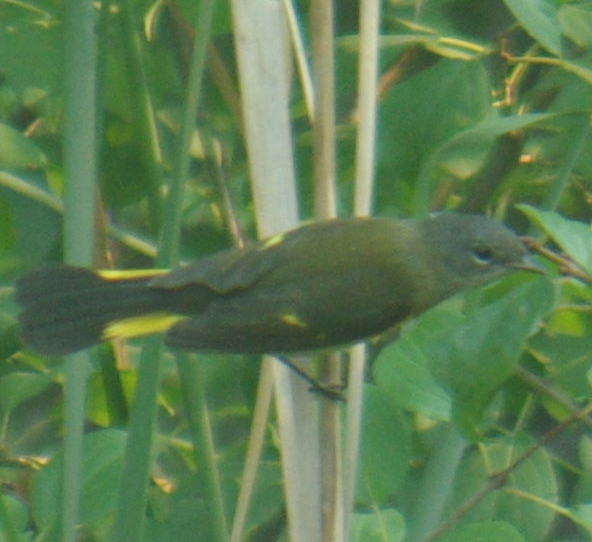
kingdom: Animalia
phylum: Chordata
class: Aves
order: Passeriformes
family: Parulidae
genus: Setophaga
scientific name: Setophaga ruticilla
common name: American redstart
